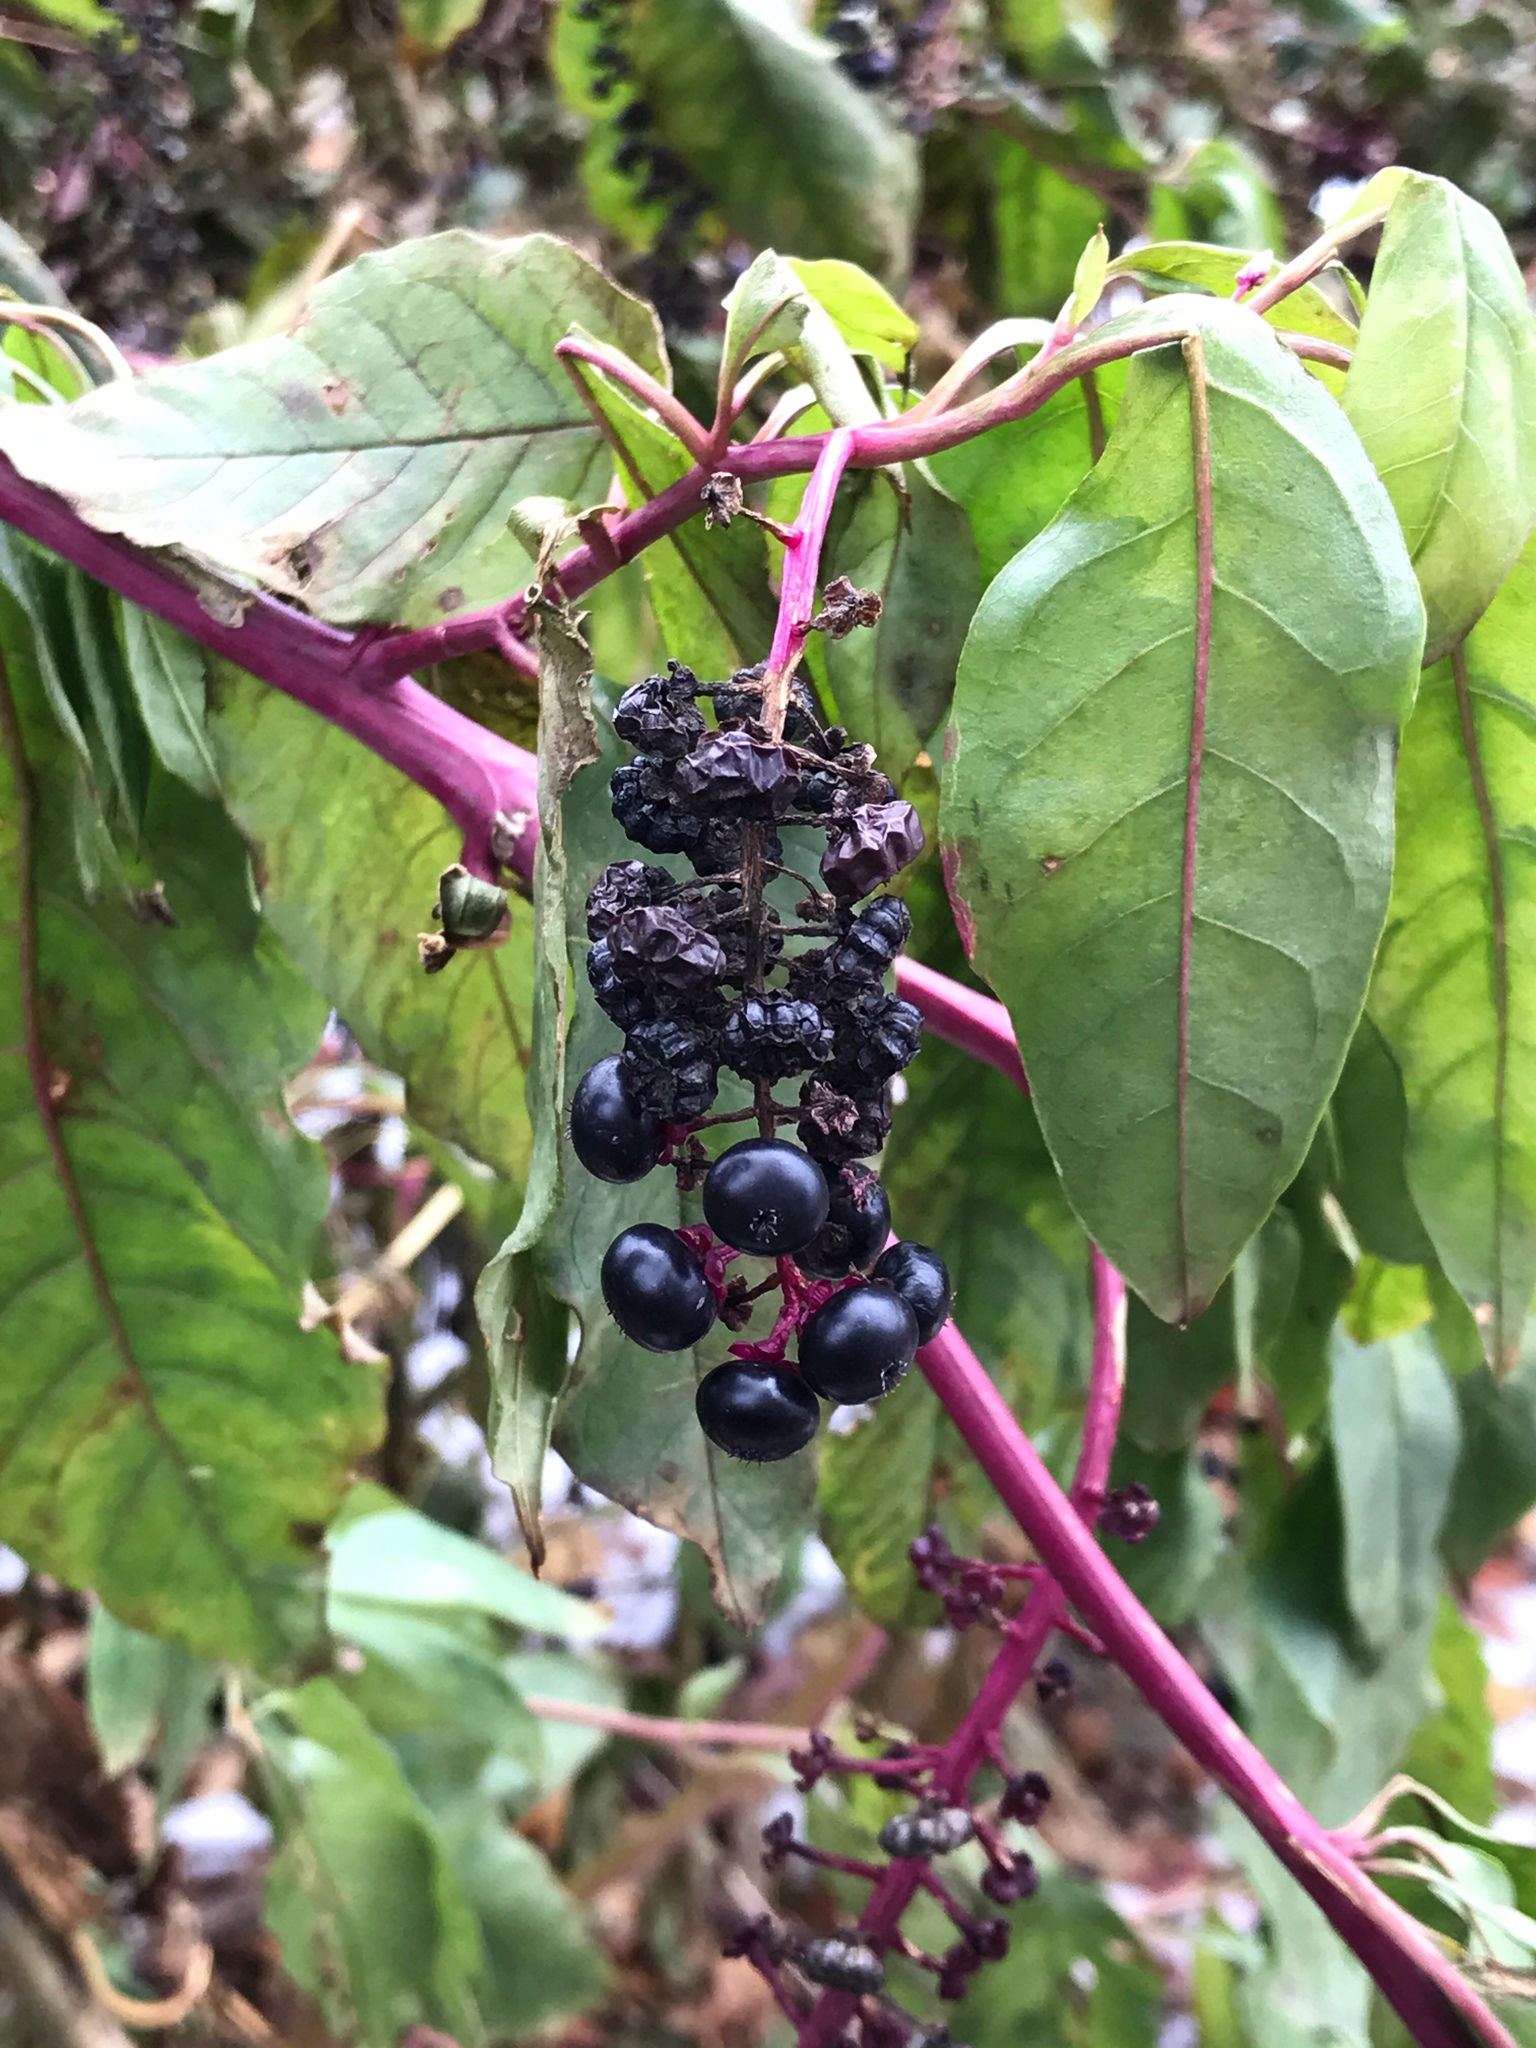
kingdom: Plantae
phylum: Tracheophyta
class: Magnoliopsida
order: Caryophyllales
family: Phytolaccaceae
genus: Phytolacca
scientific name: Phytolacca americana
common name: American pokeweed
